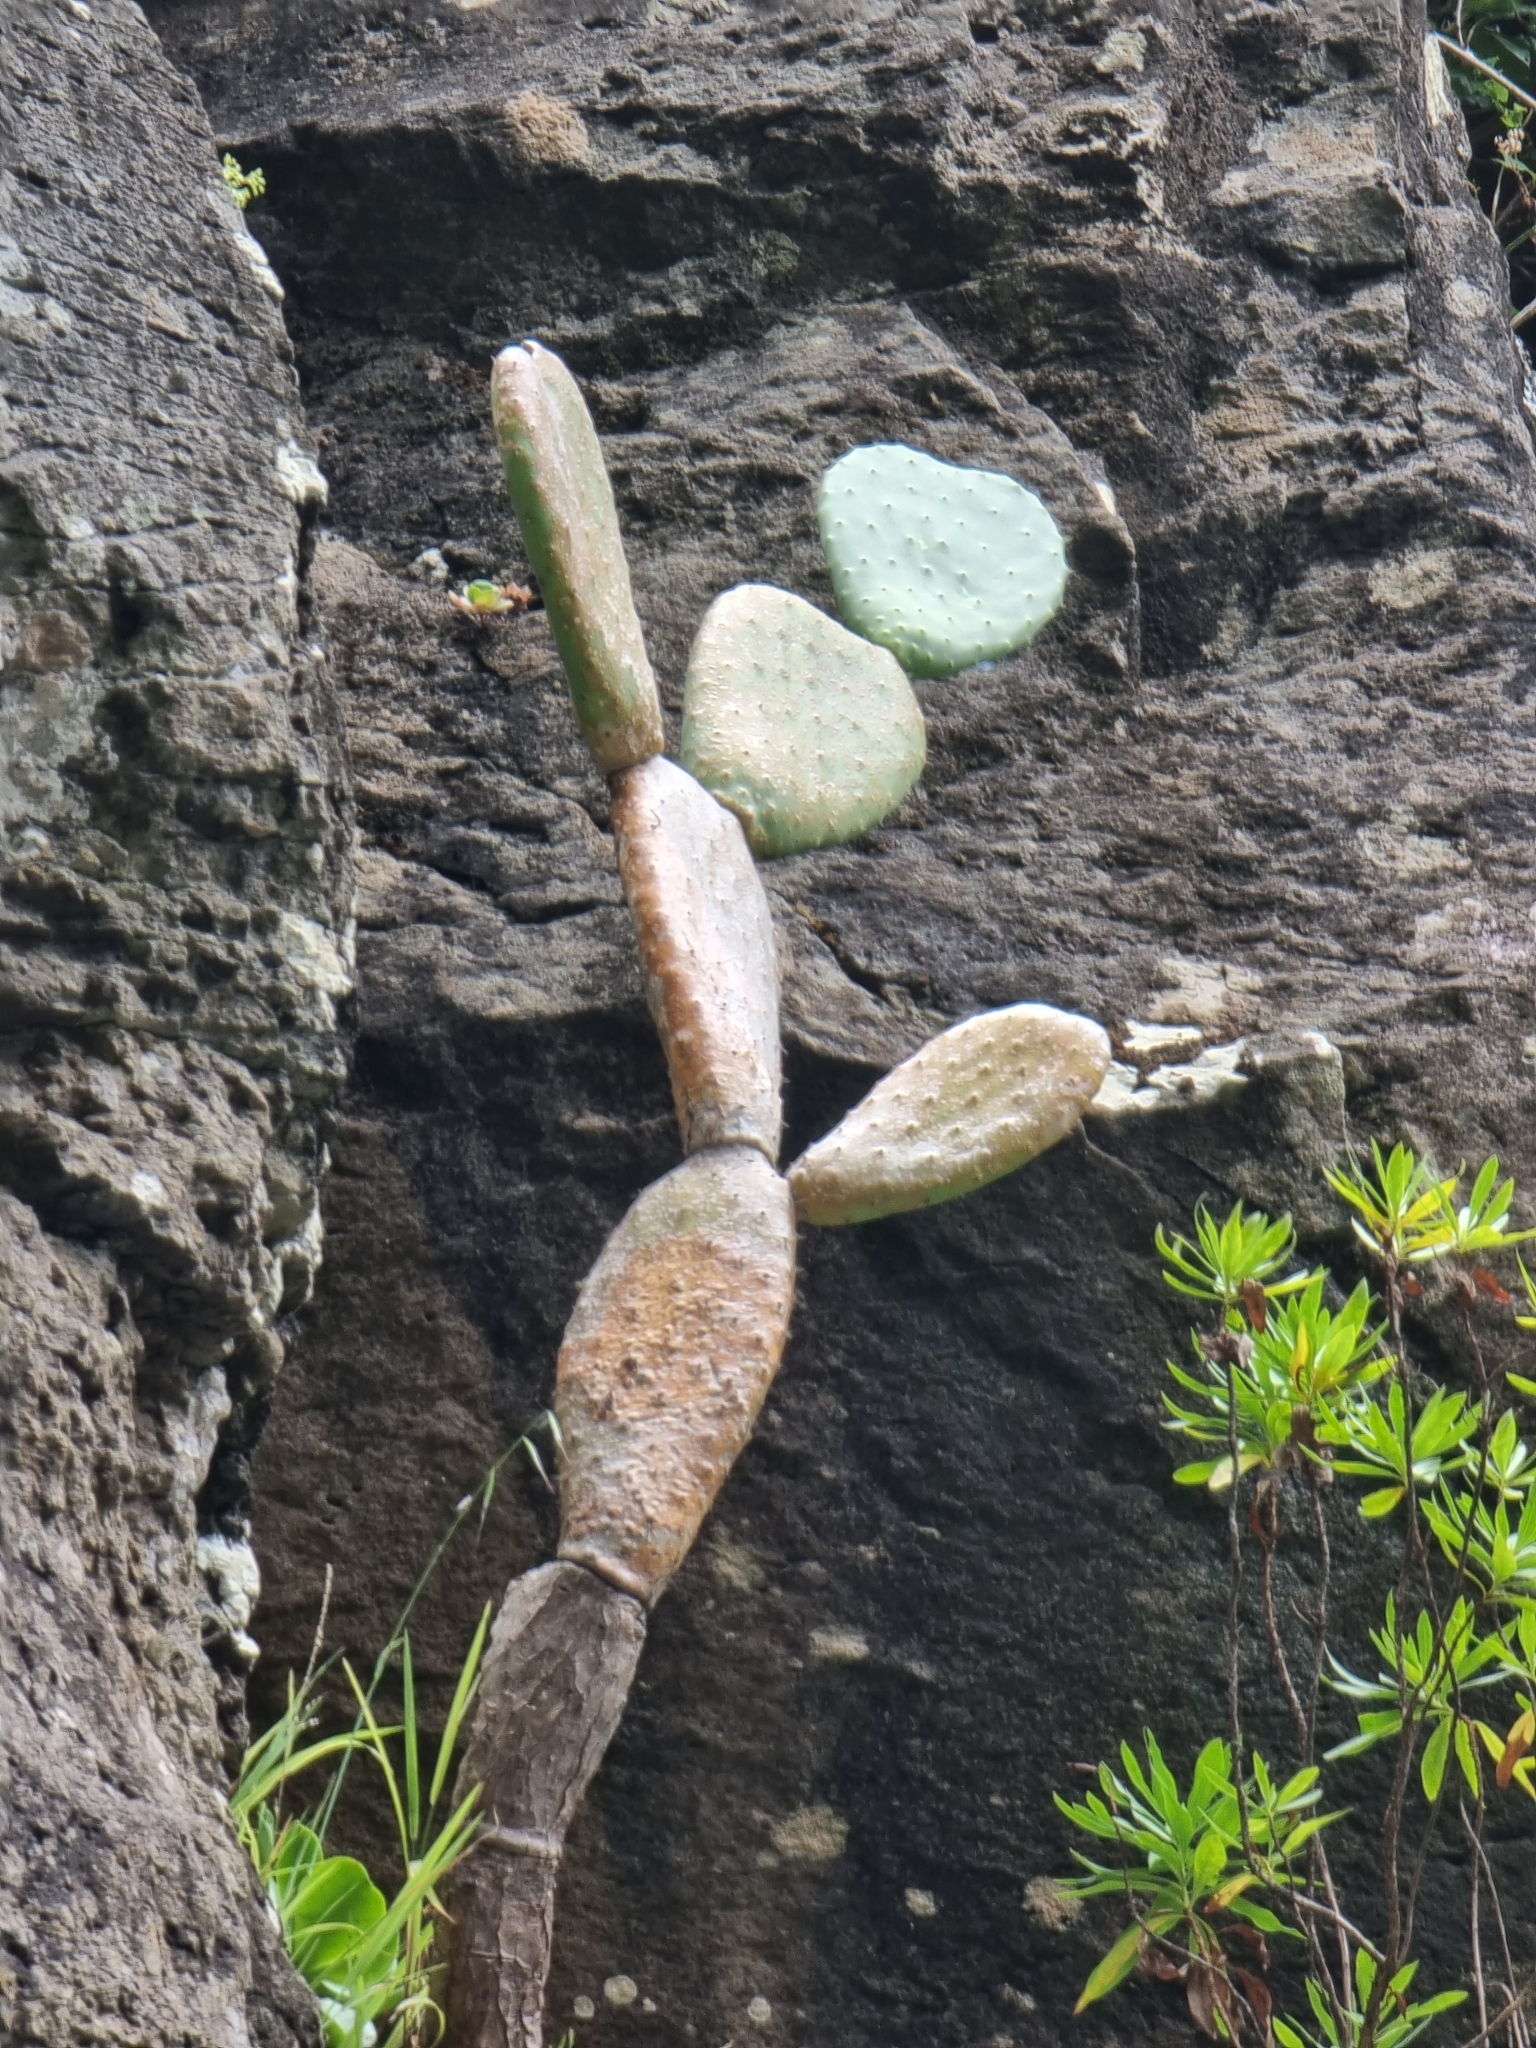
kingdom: Plantae
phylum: Tracheophyta
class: Magnoliopsida
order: Caryophyllales
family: Cactaceae
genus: Opuntia
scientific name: Opuntia ficus-indica
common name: Barbary fig
